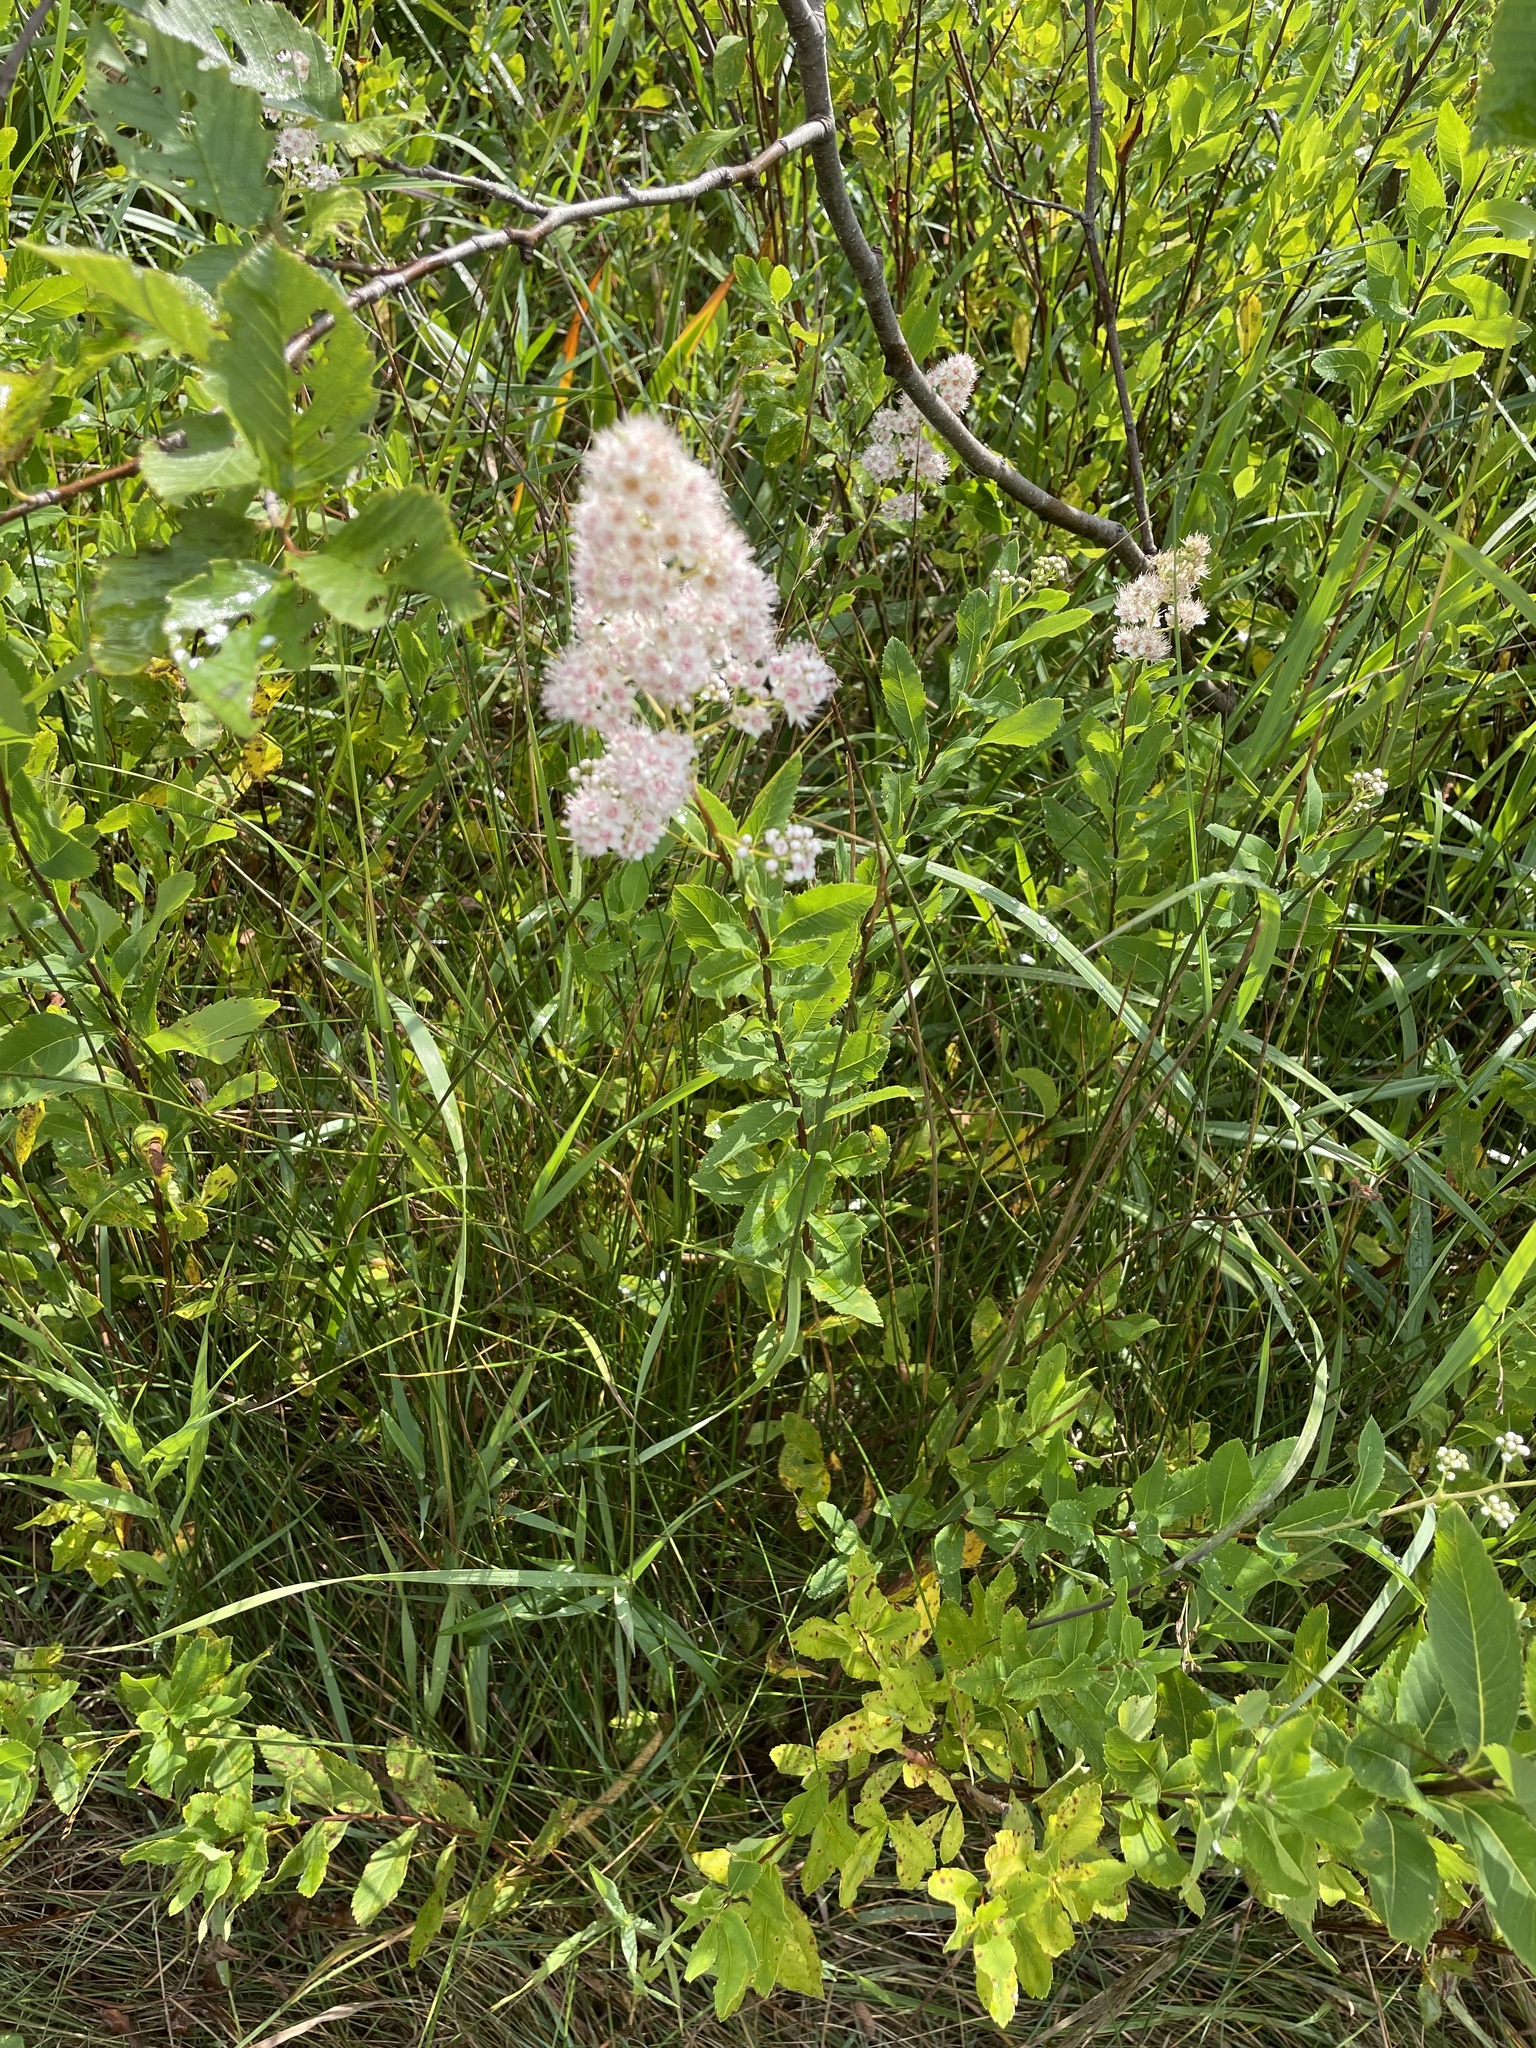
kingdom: Plantae
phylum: Tracheophyta
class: Magnoliopsida
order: Rosales
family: Rosaceae
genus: Spiraea
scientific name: Spiraea alba
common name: Pale bridewort
